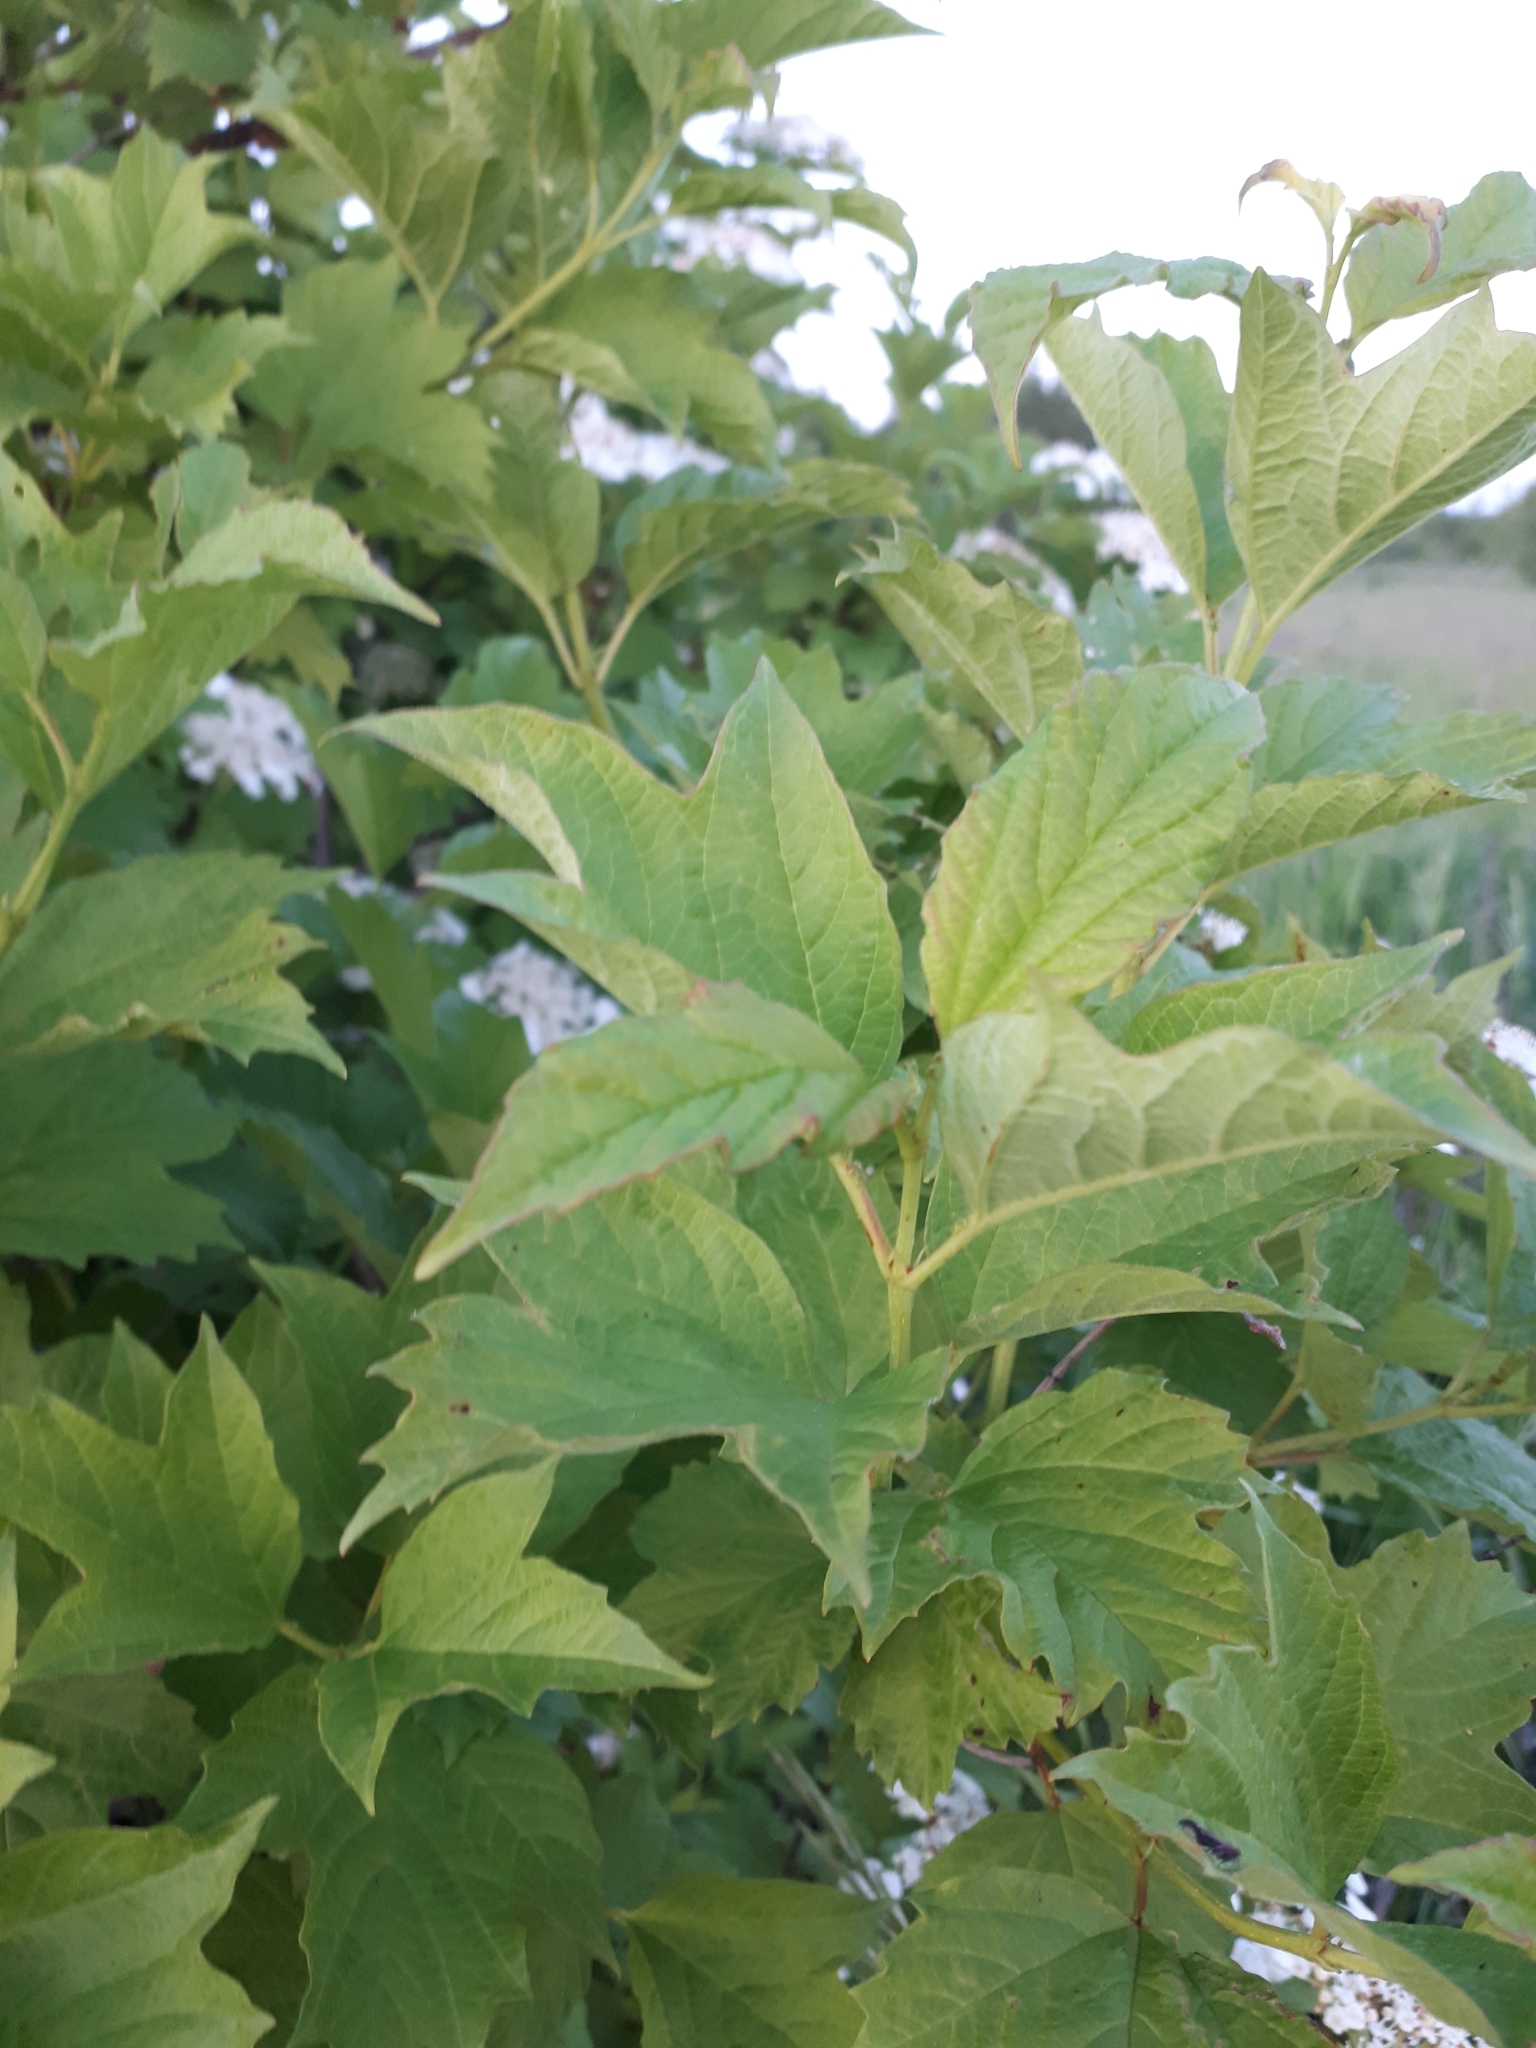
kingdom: Plantae
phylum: Tracheophyta
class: Magnoliopsida
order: Dipsacales
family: Viburnaceae
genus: Viburnum
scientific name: Viburnum opulus
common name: Guelder-rose
